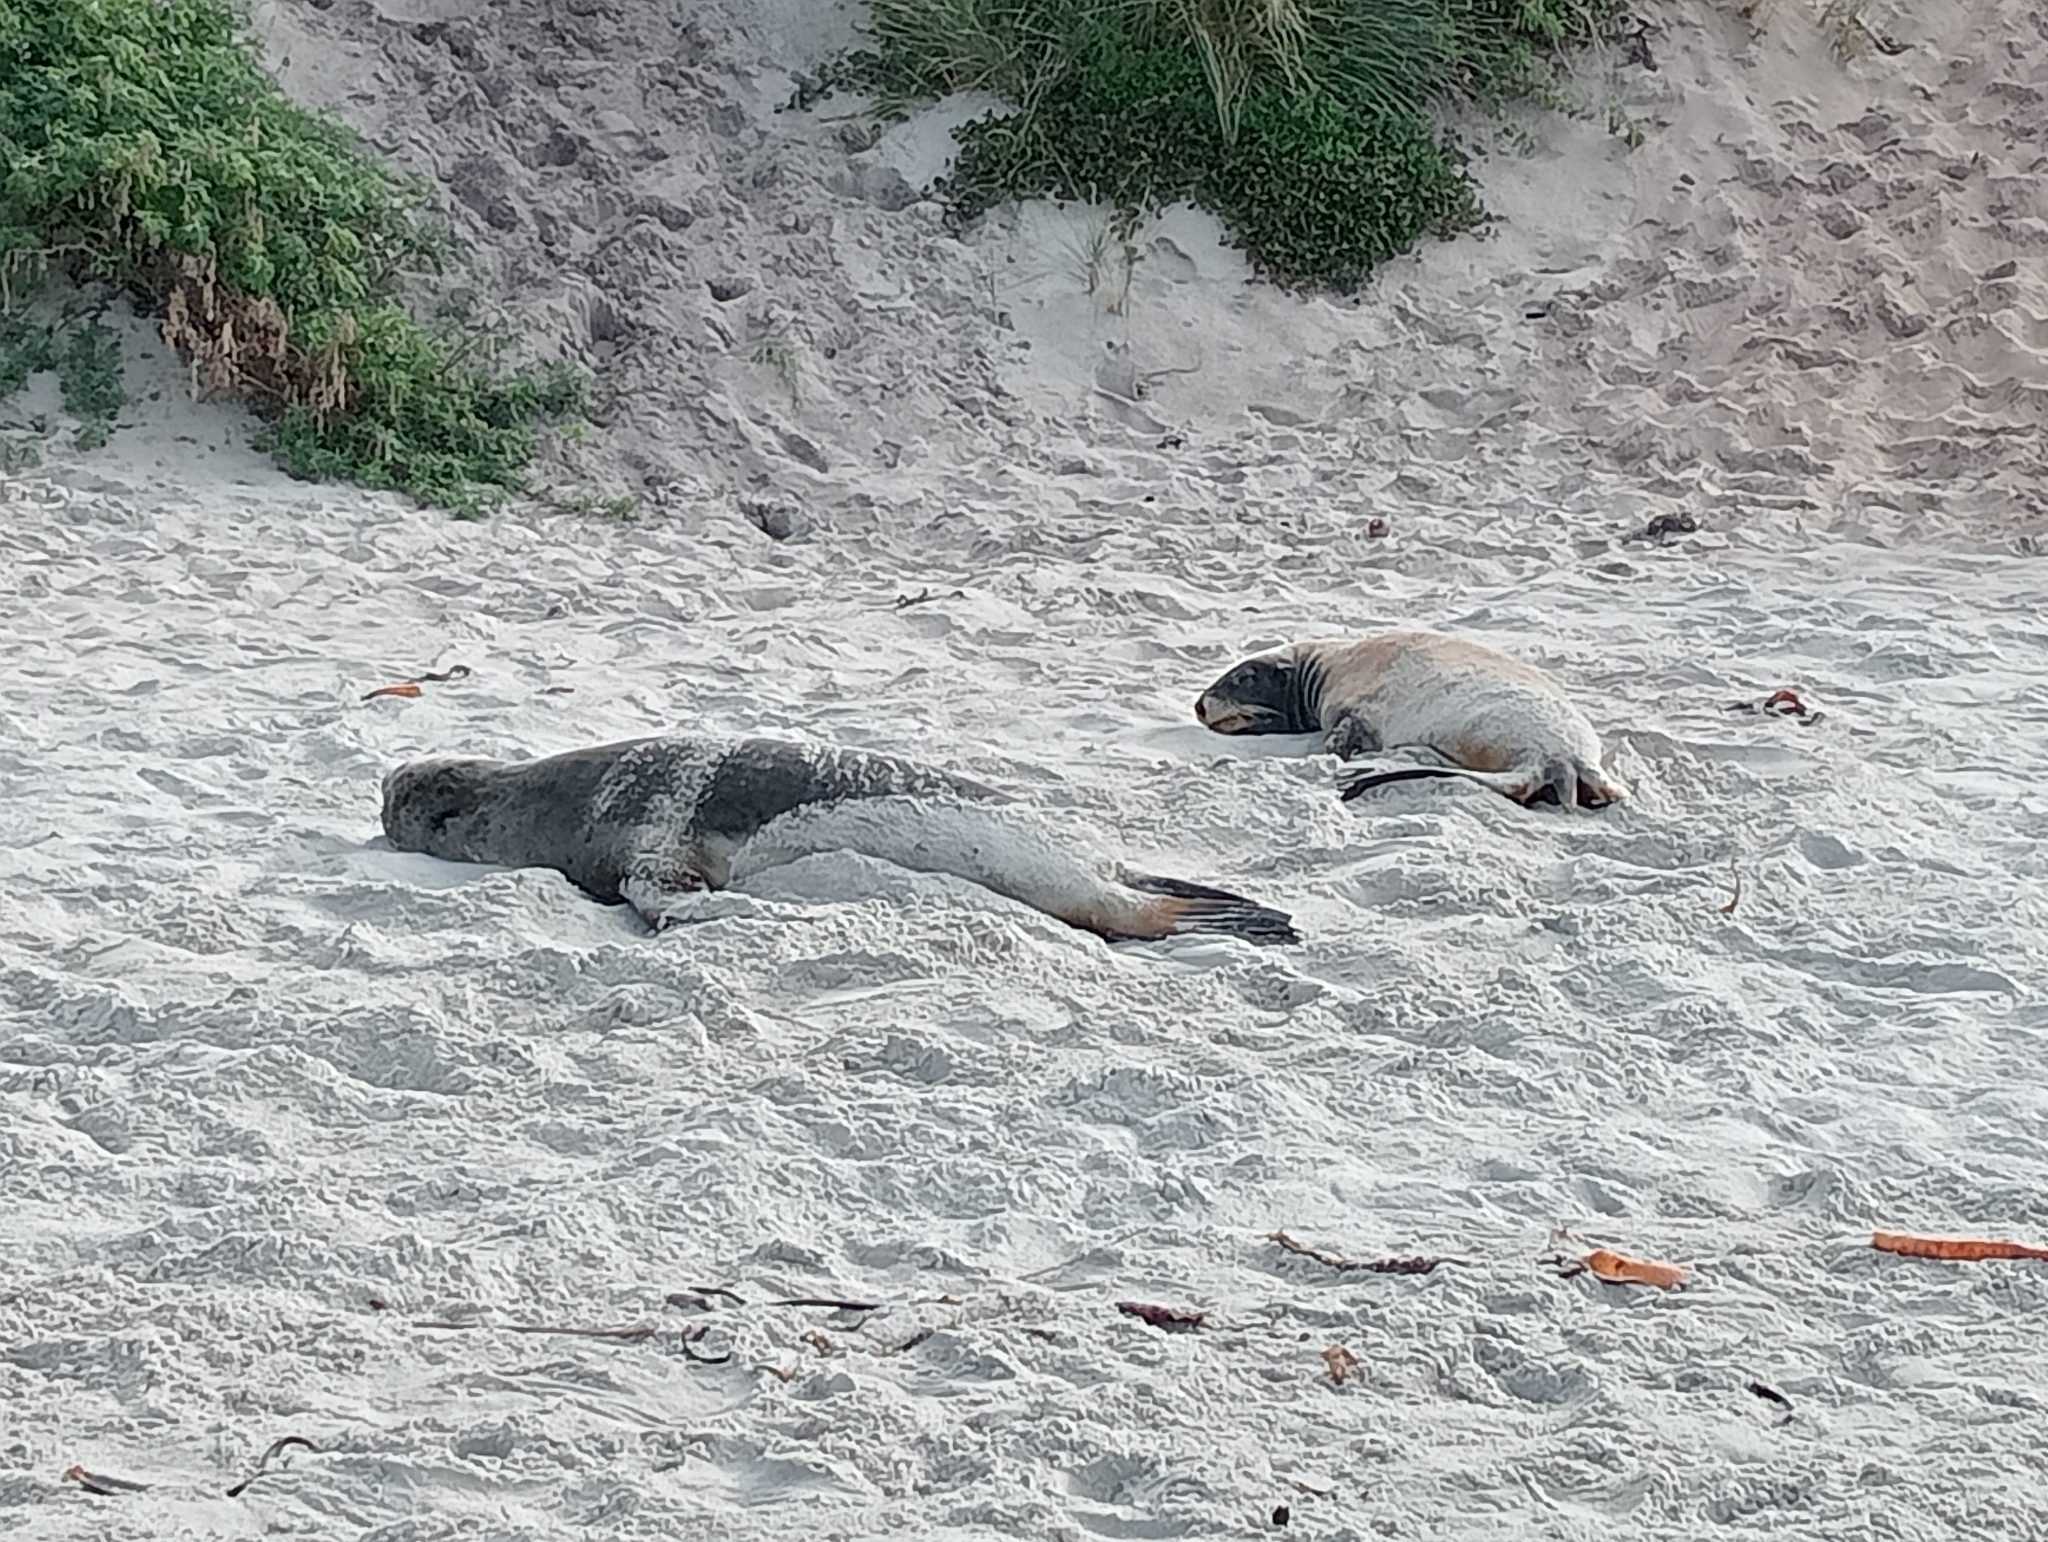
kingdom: Animalia
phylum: Chordata
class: Mammalia
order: Carnivora
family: Otariidae
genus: Phocarctos
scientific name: Phocarctos hookeri
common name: New zealand sea lion
